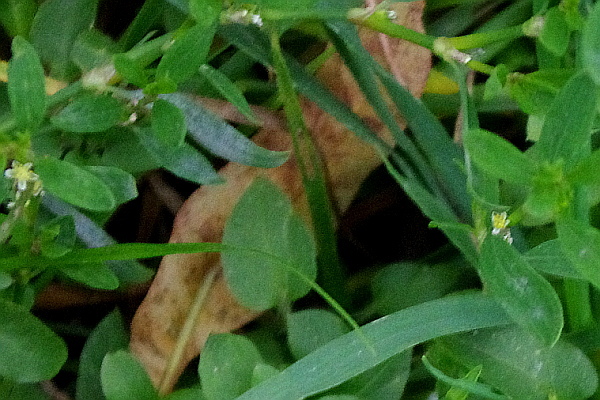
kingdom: Plantae
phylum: Tracheophyta
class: Magnoliopsida
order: Caryophyllales
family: Polygonaceae
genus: Polygonum
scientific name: Polygonum
